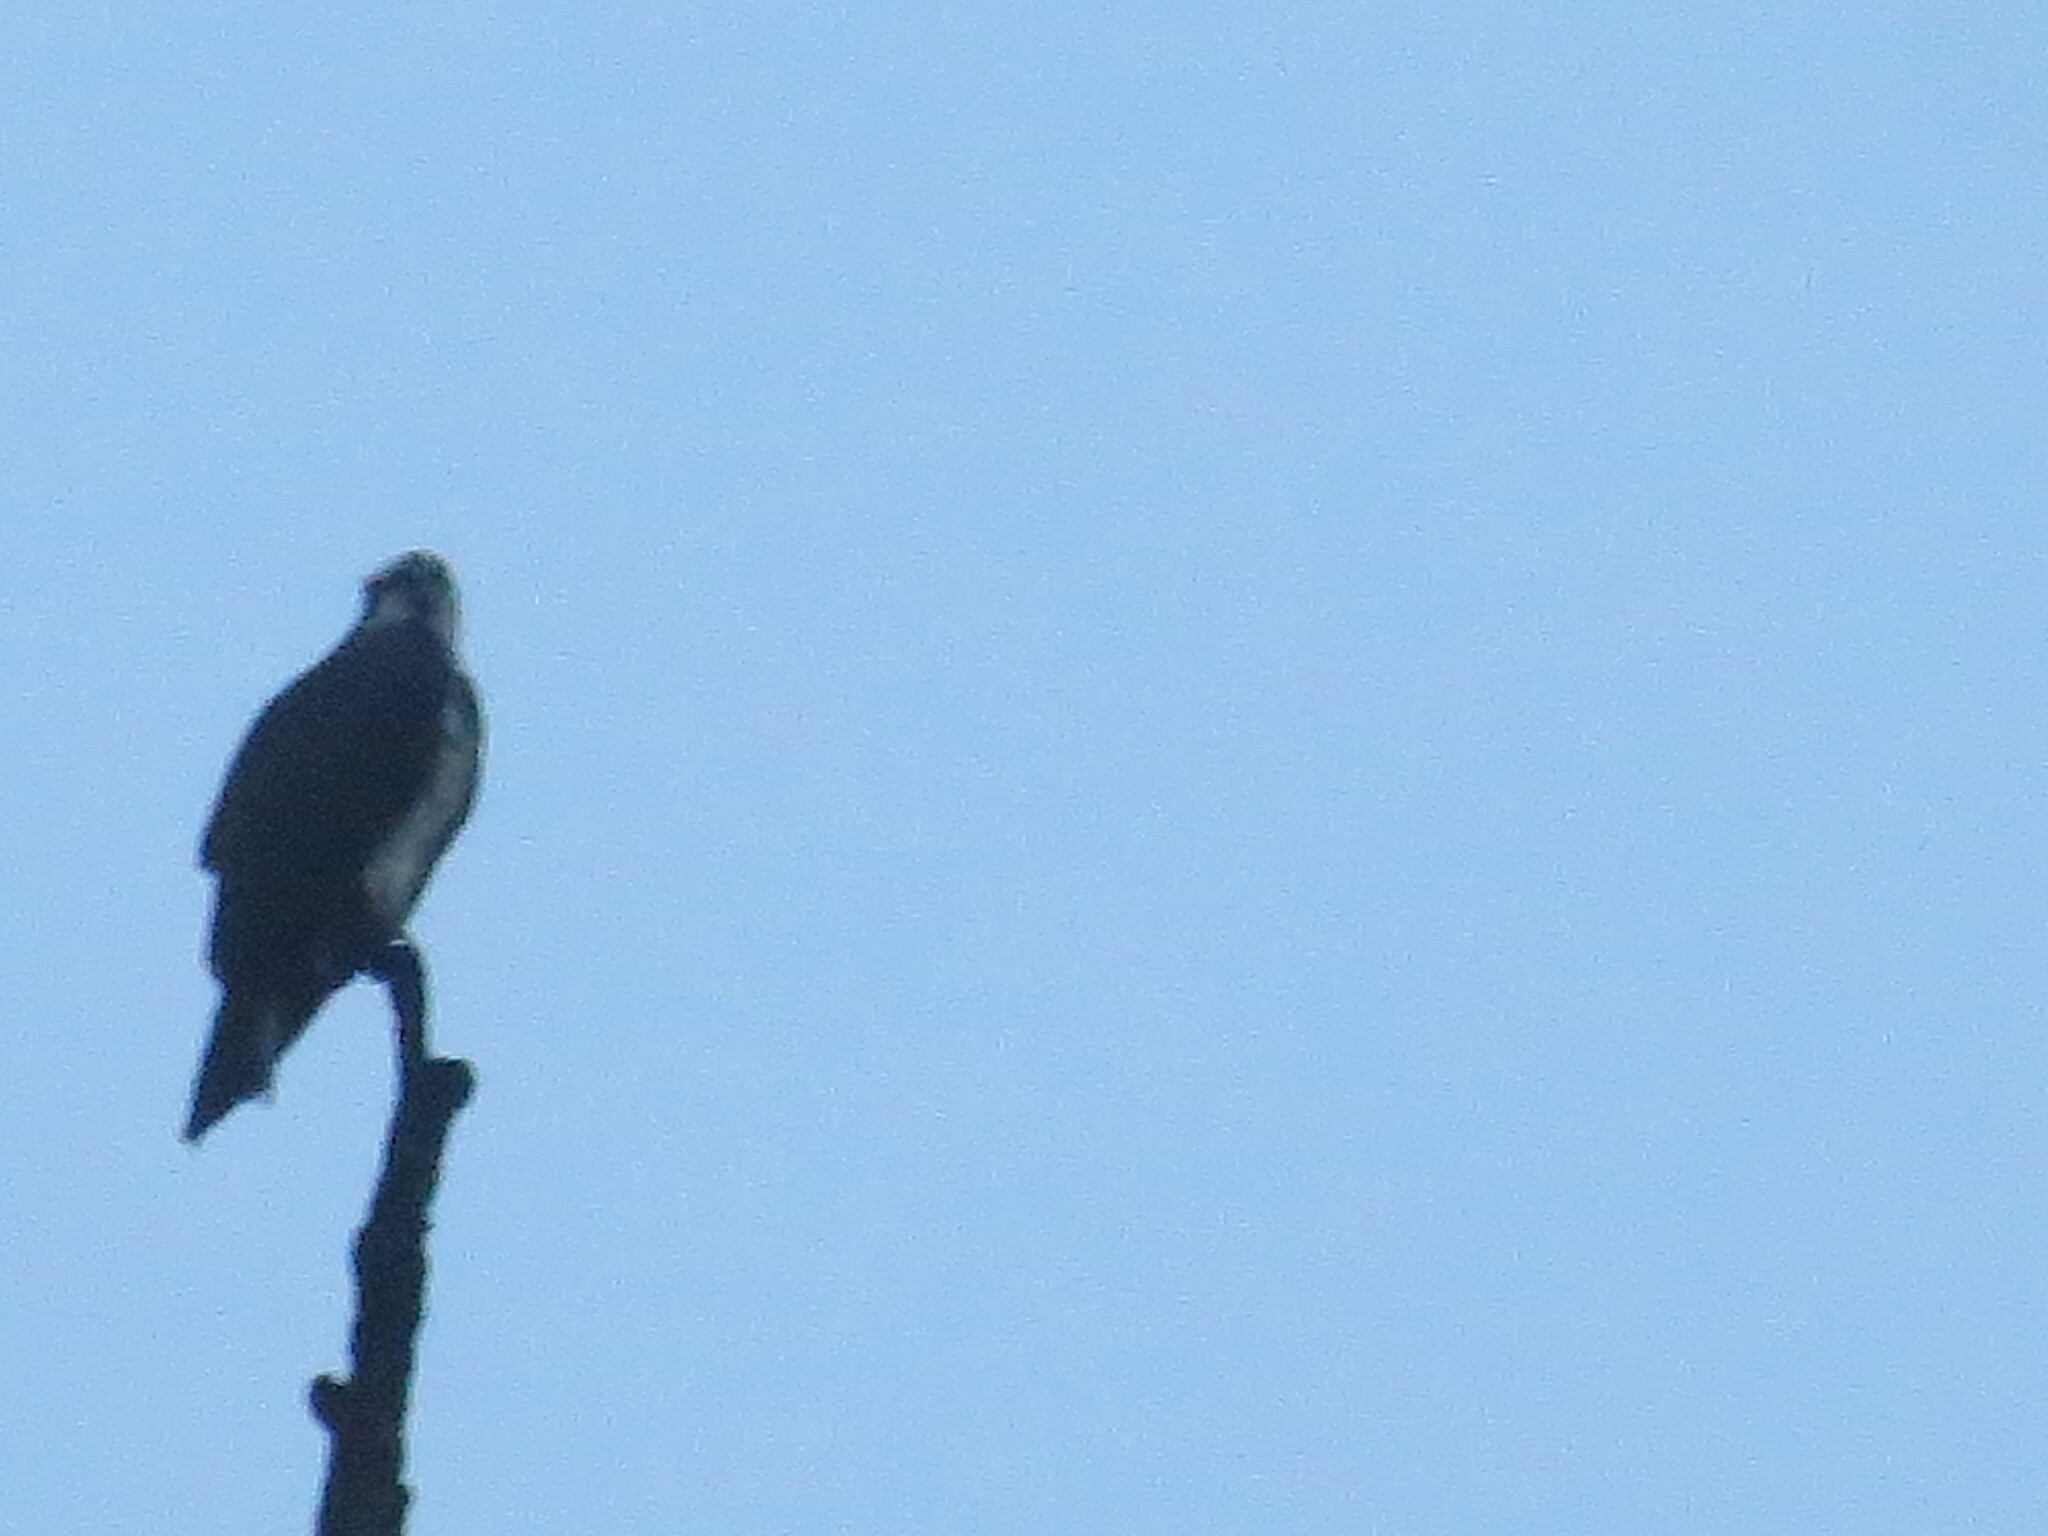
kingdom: Animalia
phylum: Chordata
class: Aves
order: Accipitriformes
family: Pandionidae
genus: Pandion
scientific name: Pandion haliaetus
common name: Osprey
